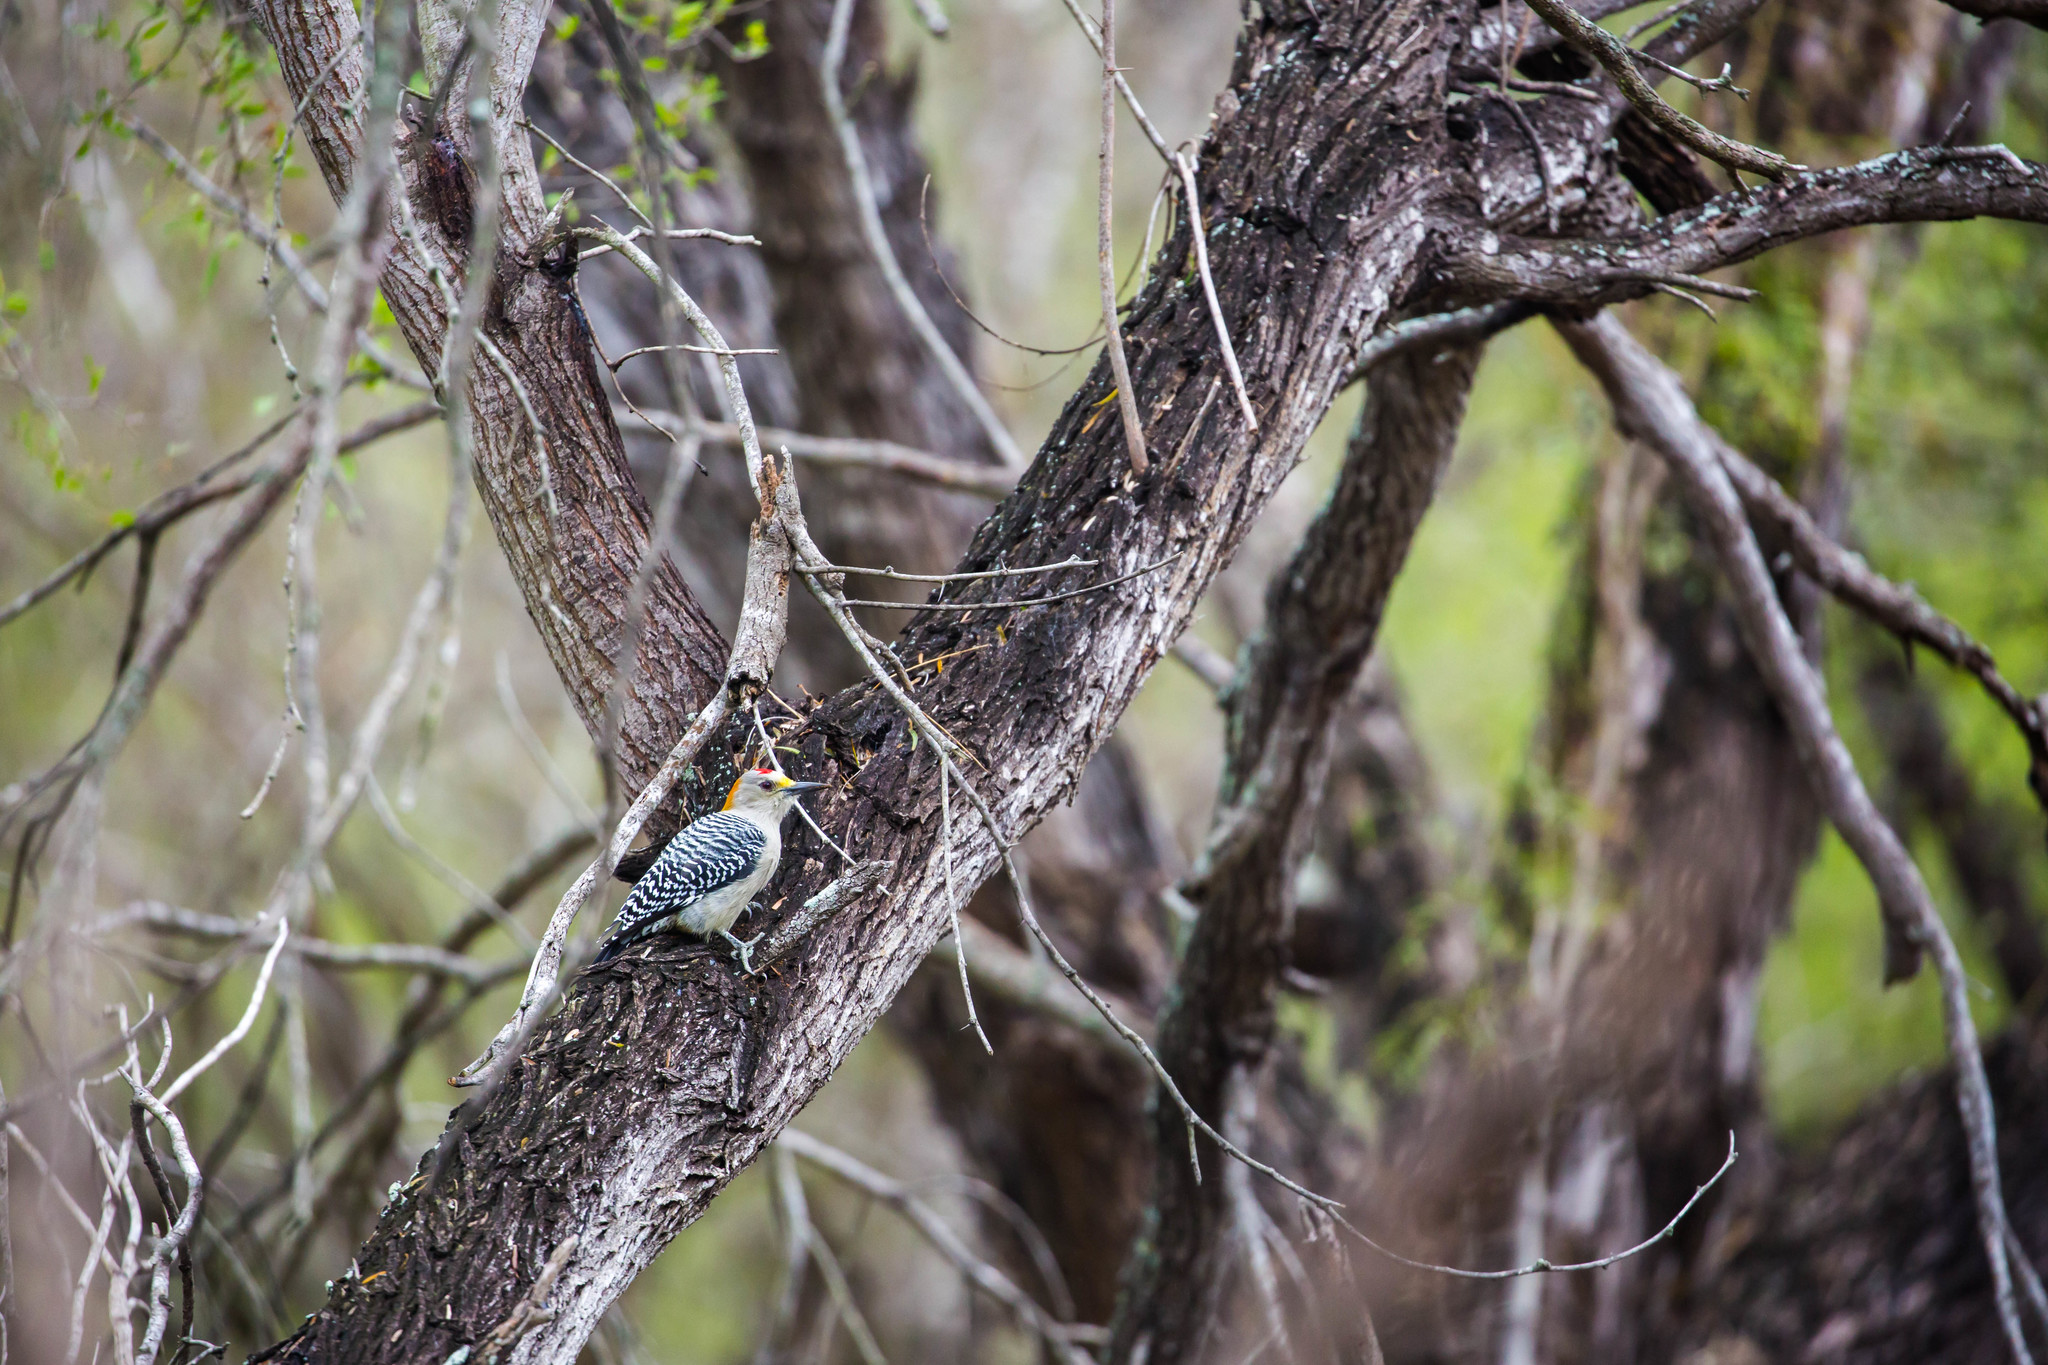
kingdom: Animalia
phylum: Chordata
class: Aves
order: Piciformes
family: Picidae
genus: Melanerpes
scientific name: Melanerpes aurifrons
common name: Golden-fronted woodpecker
